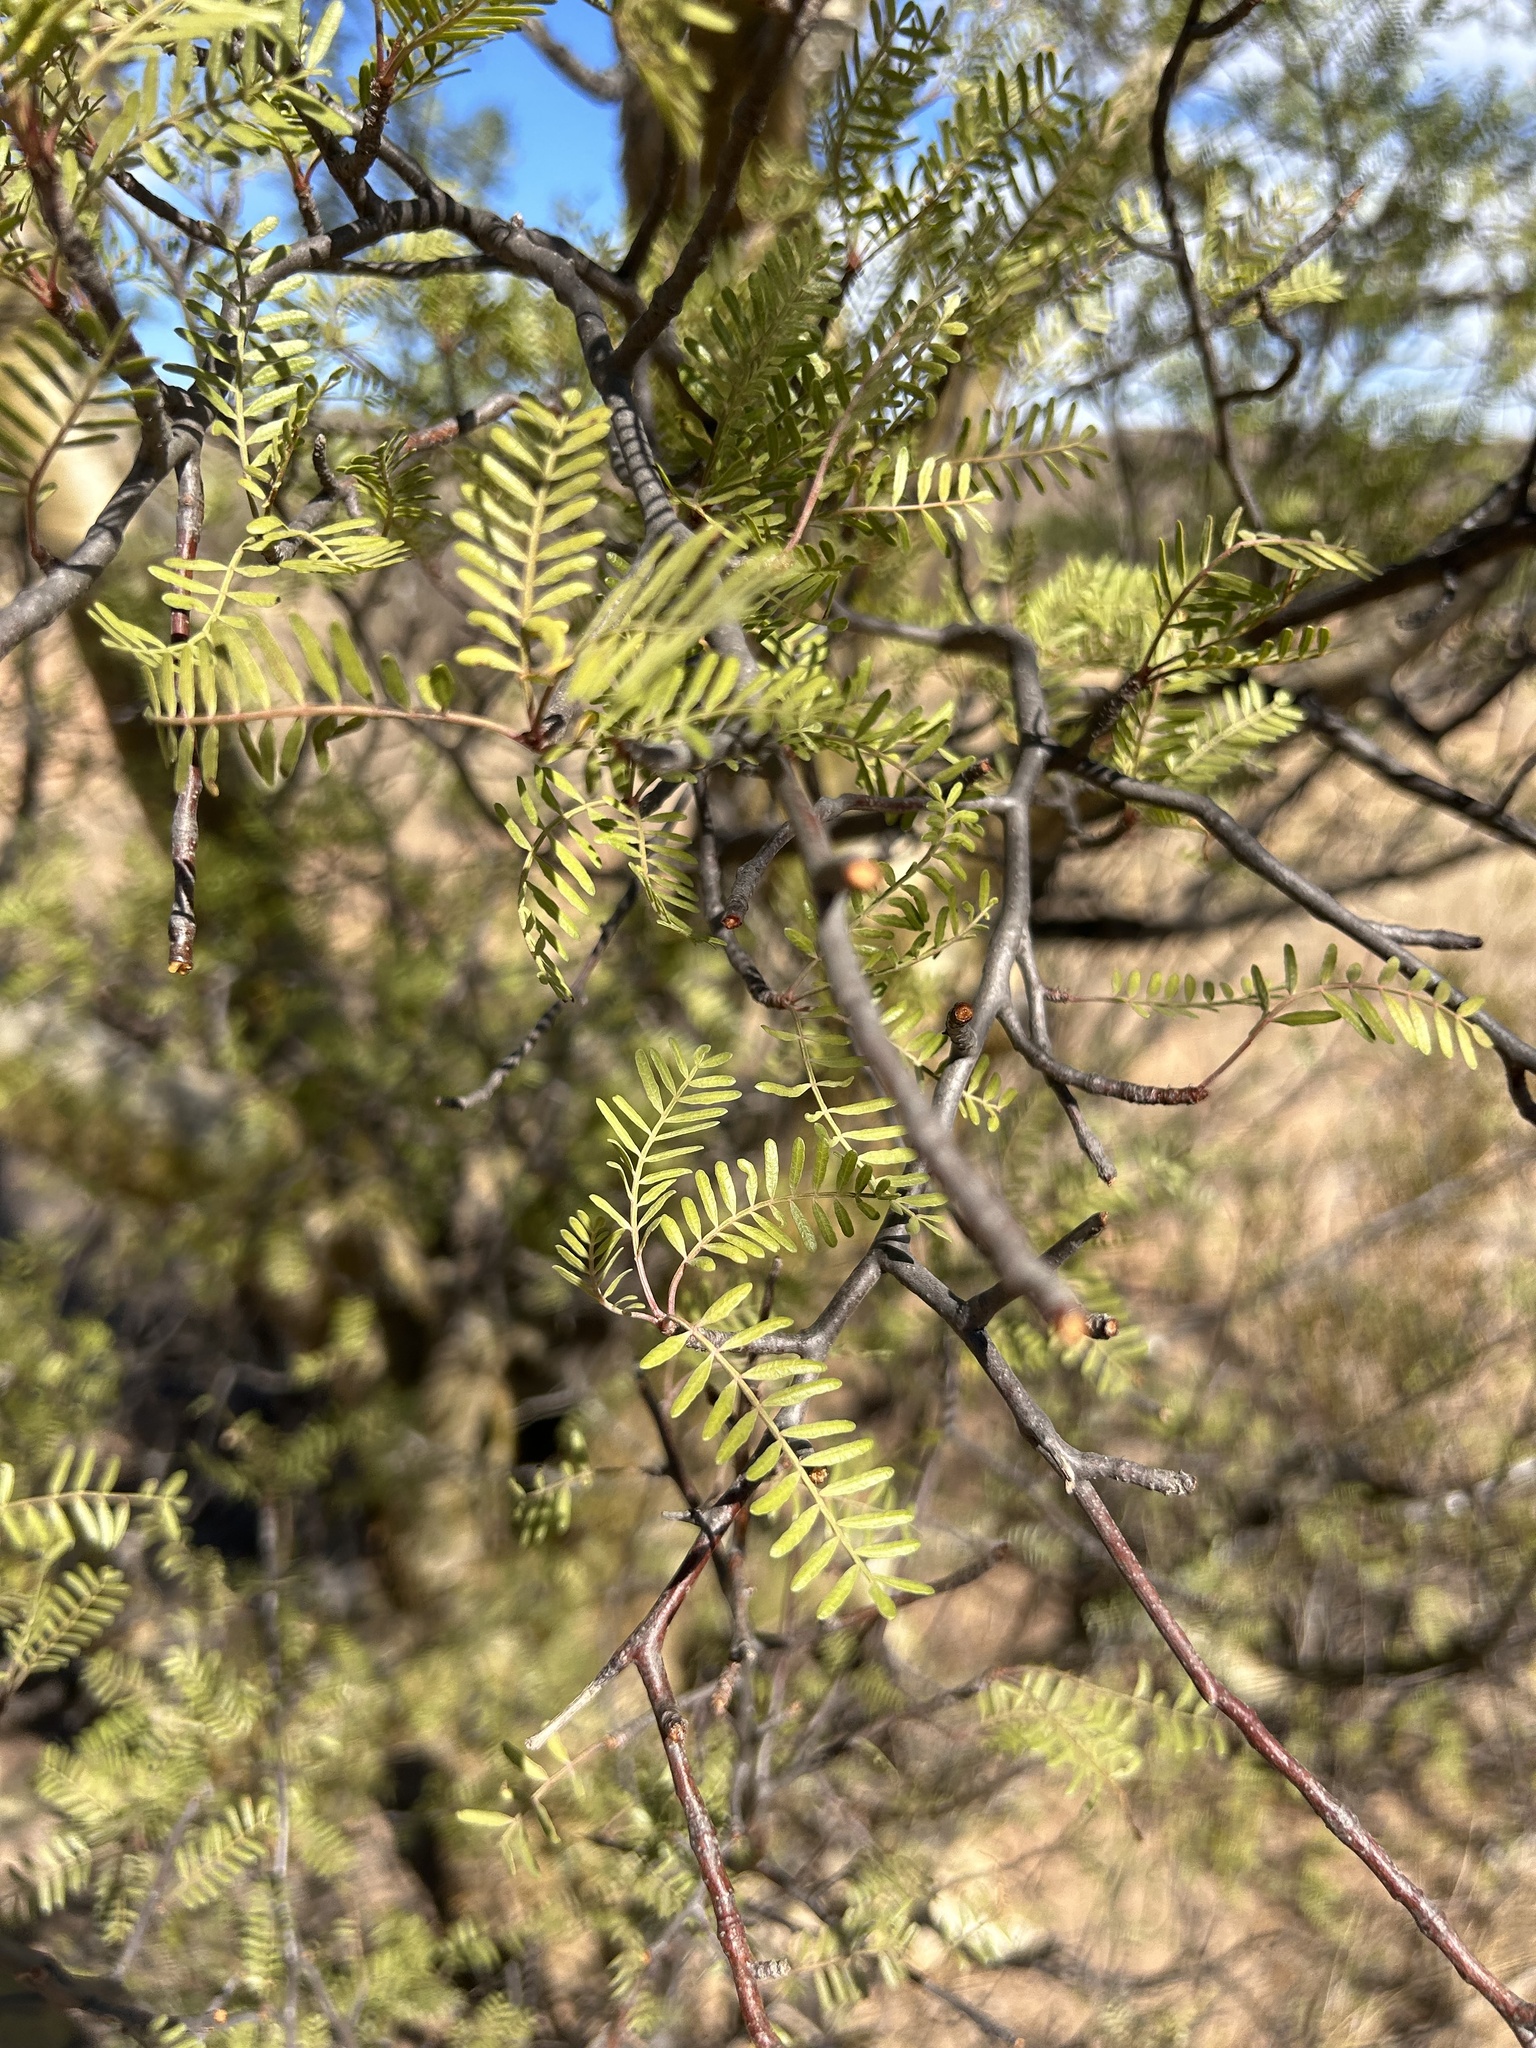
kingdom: Plantae
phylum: Tracheophyta
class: Magnoliopsida
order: Sapindales
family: Burseraceae
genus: Bursera
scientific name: Bursera microphylla
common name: Elephant tree
